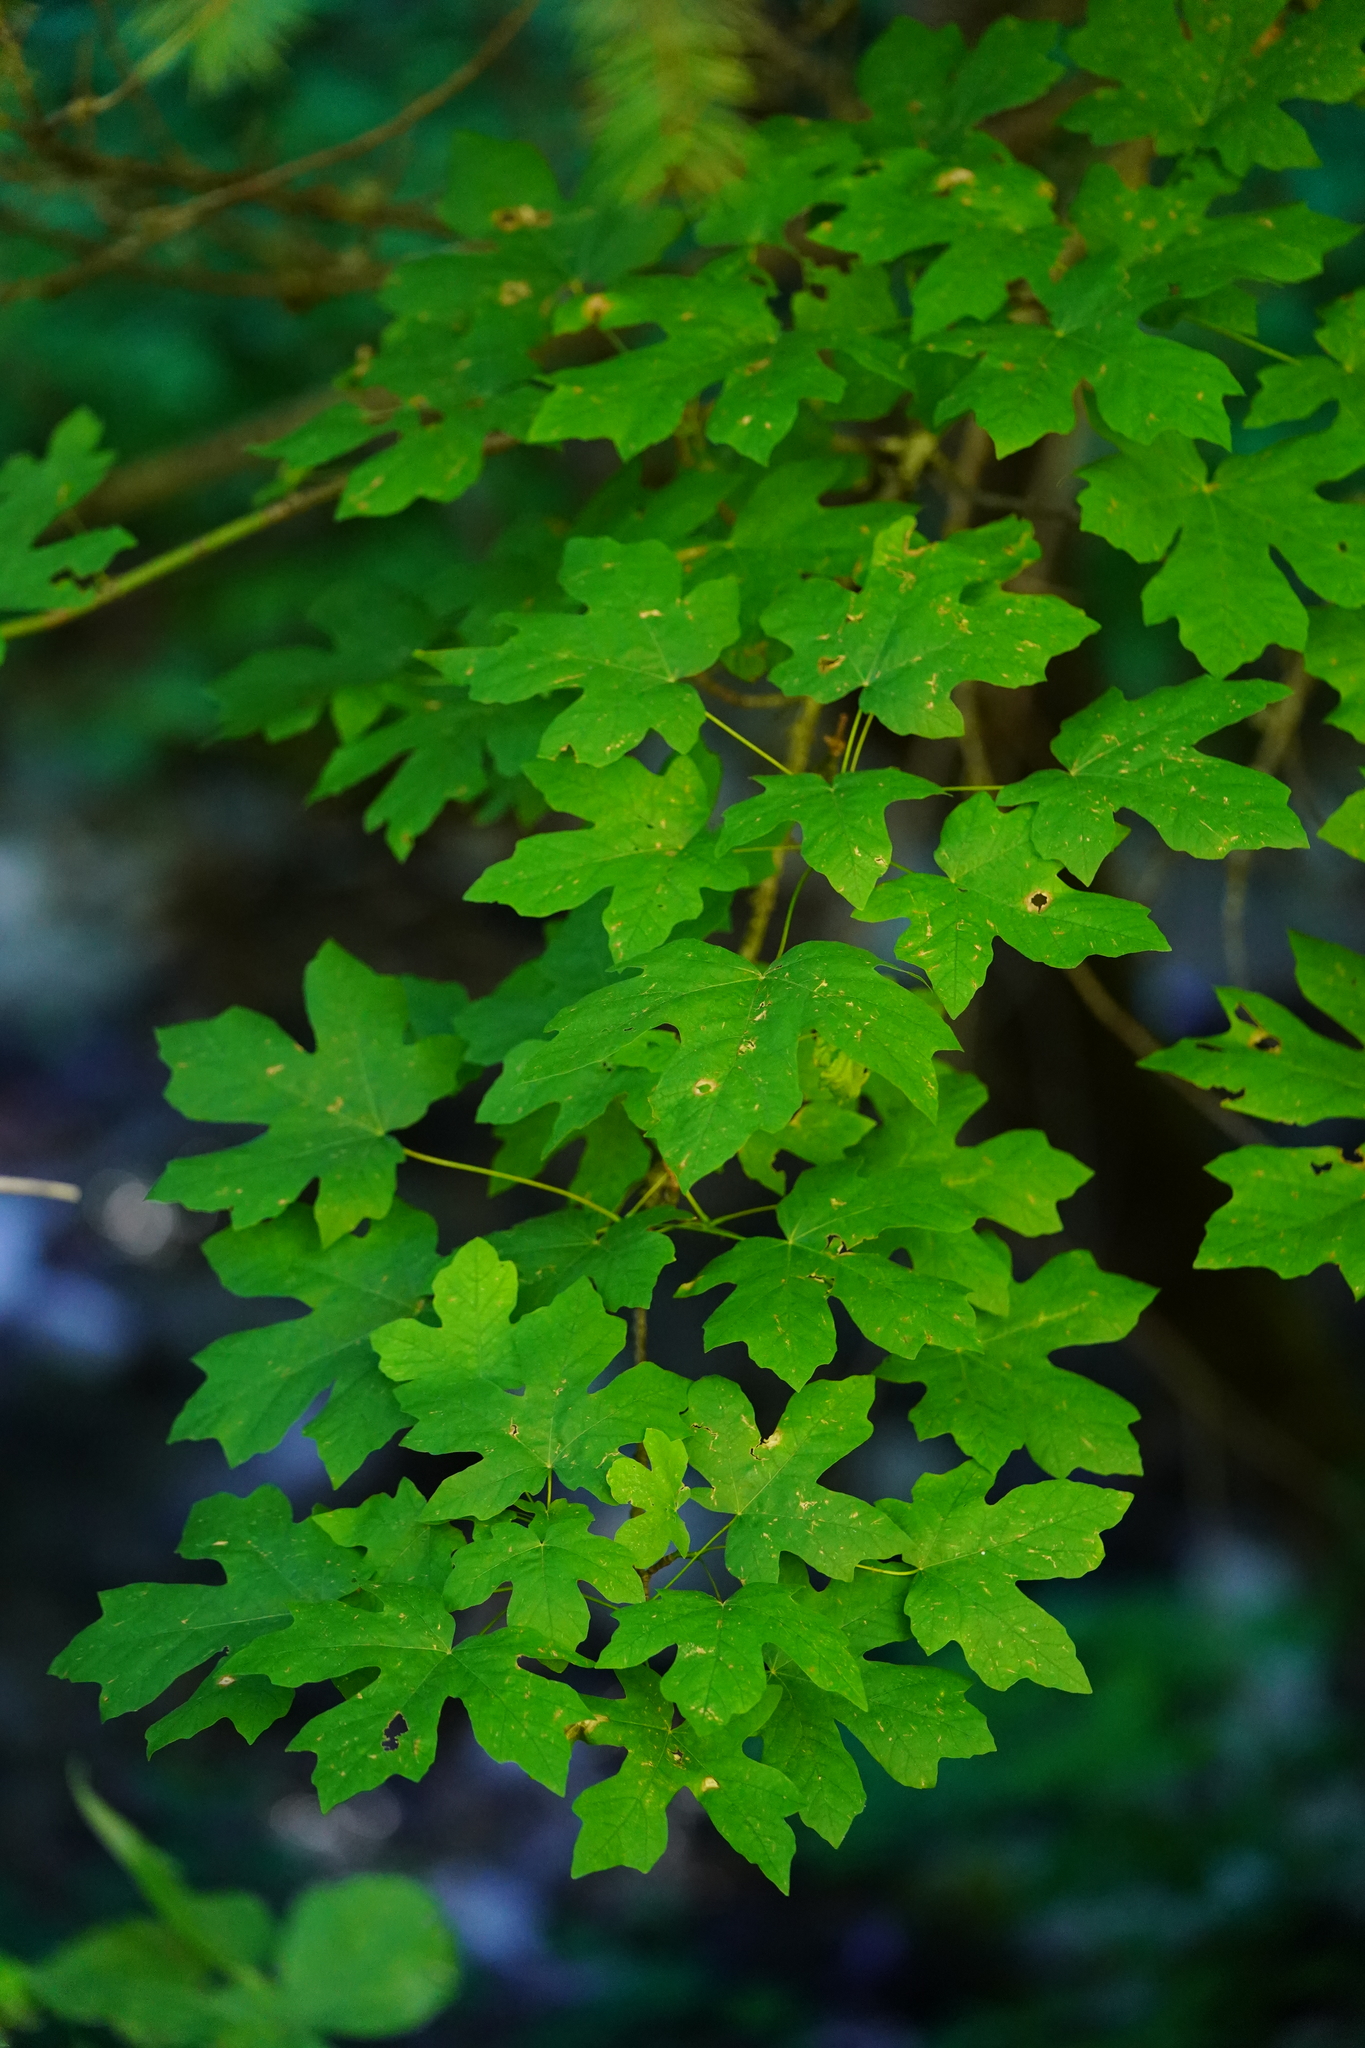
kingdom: Plantae
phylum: Tracheophyta
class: Magnoliopsida
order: Sapindales
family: Sapindaceae
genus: Acer
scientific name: Acer macrophyllum
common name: Oregon maple
